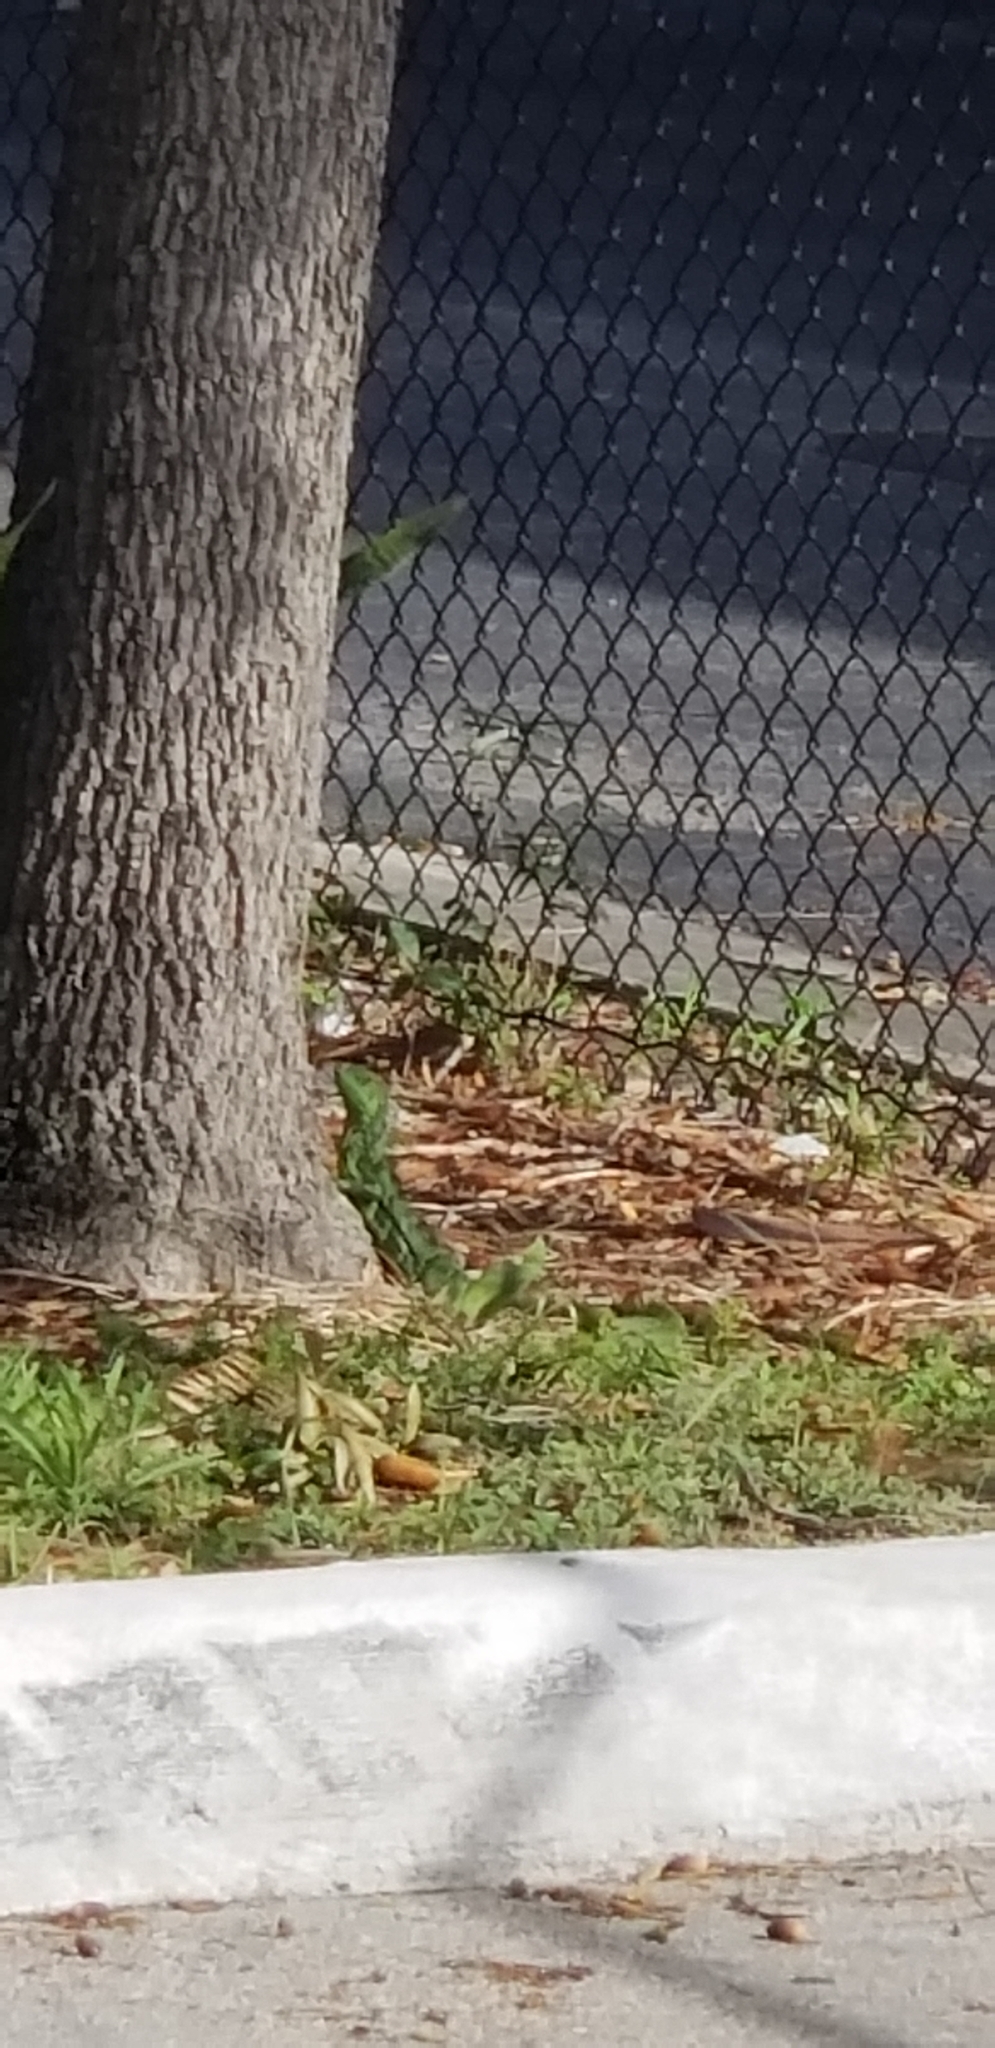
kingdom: Animalia
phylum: Chordata
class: Squamata
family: Iguanidae
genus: Iguana
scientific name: Iguana iguana
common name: Green iguana
